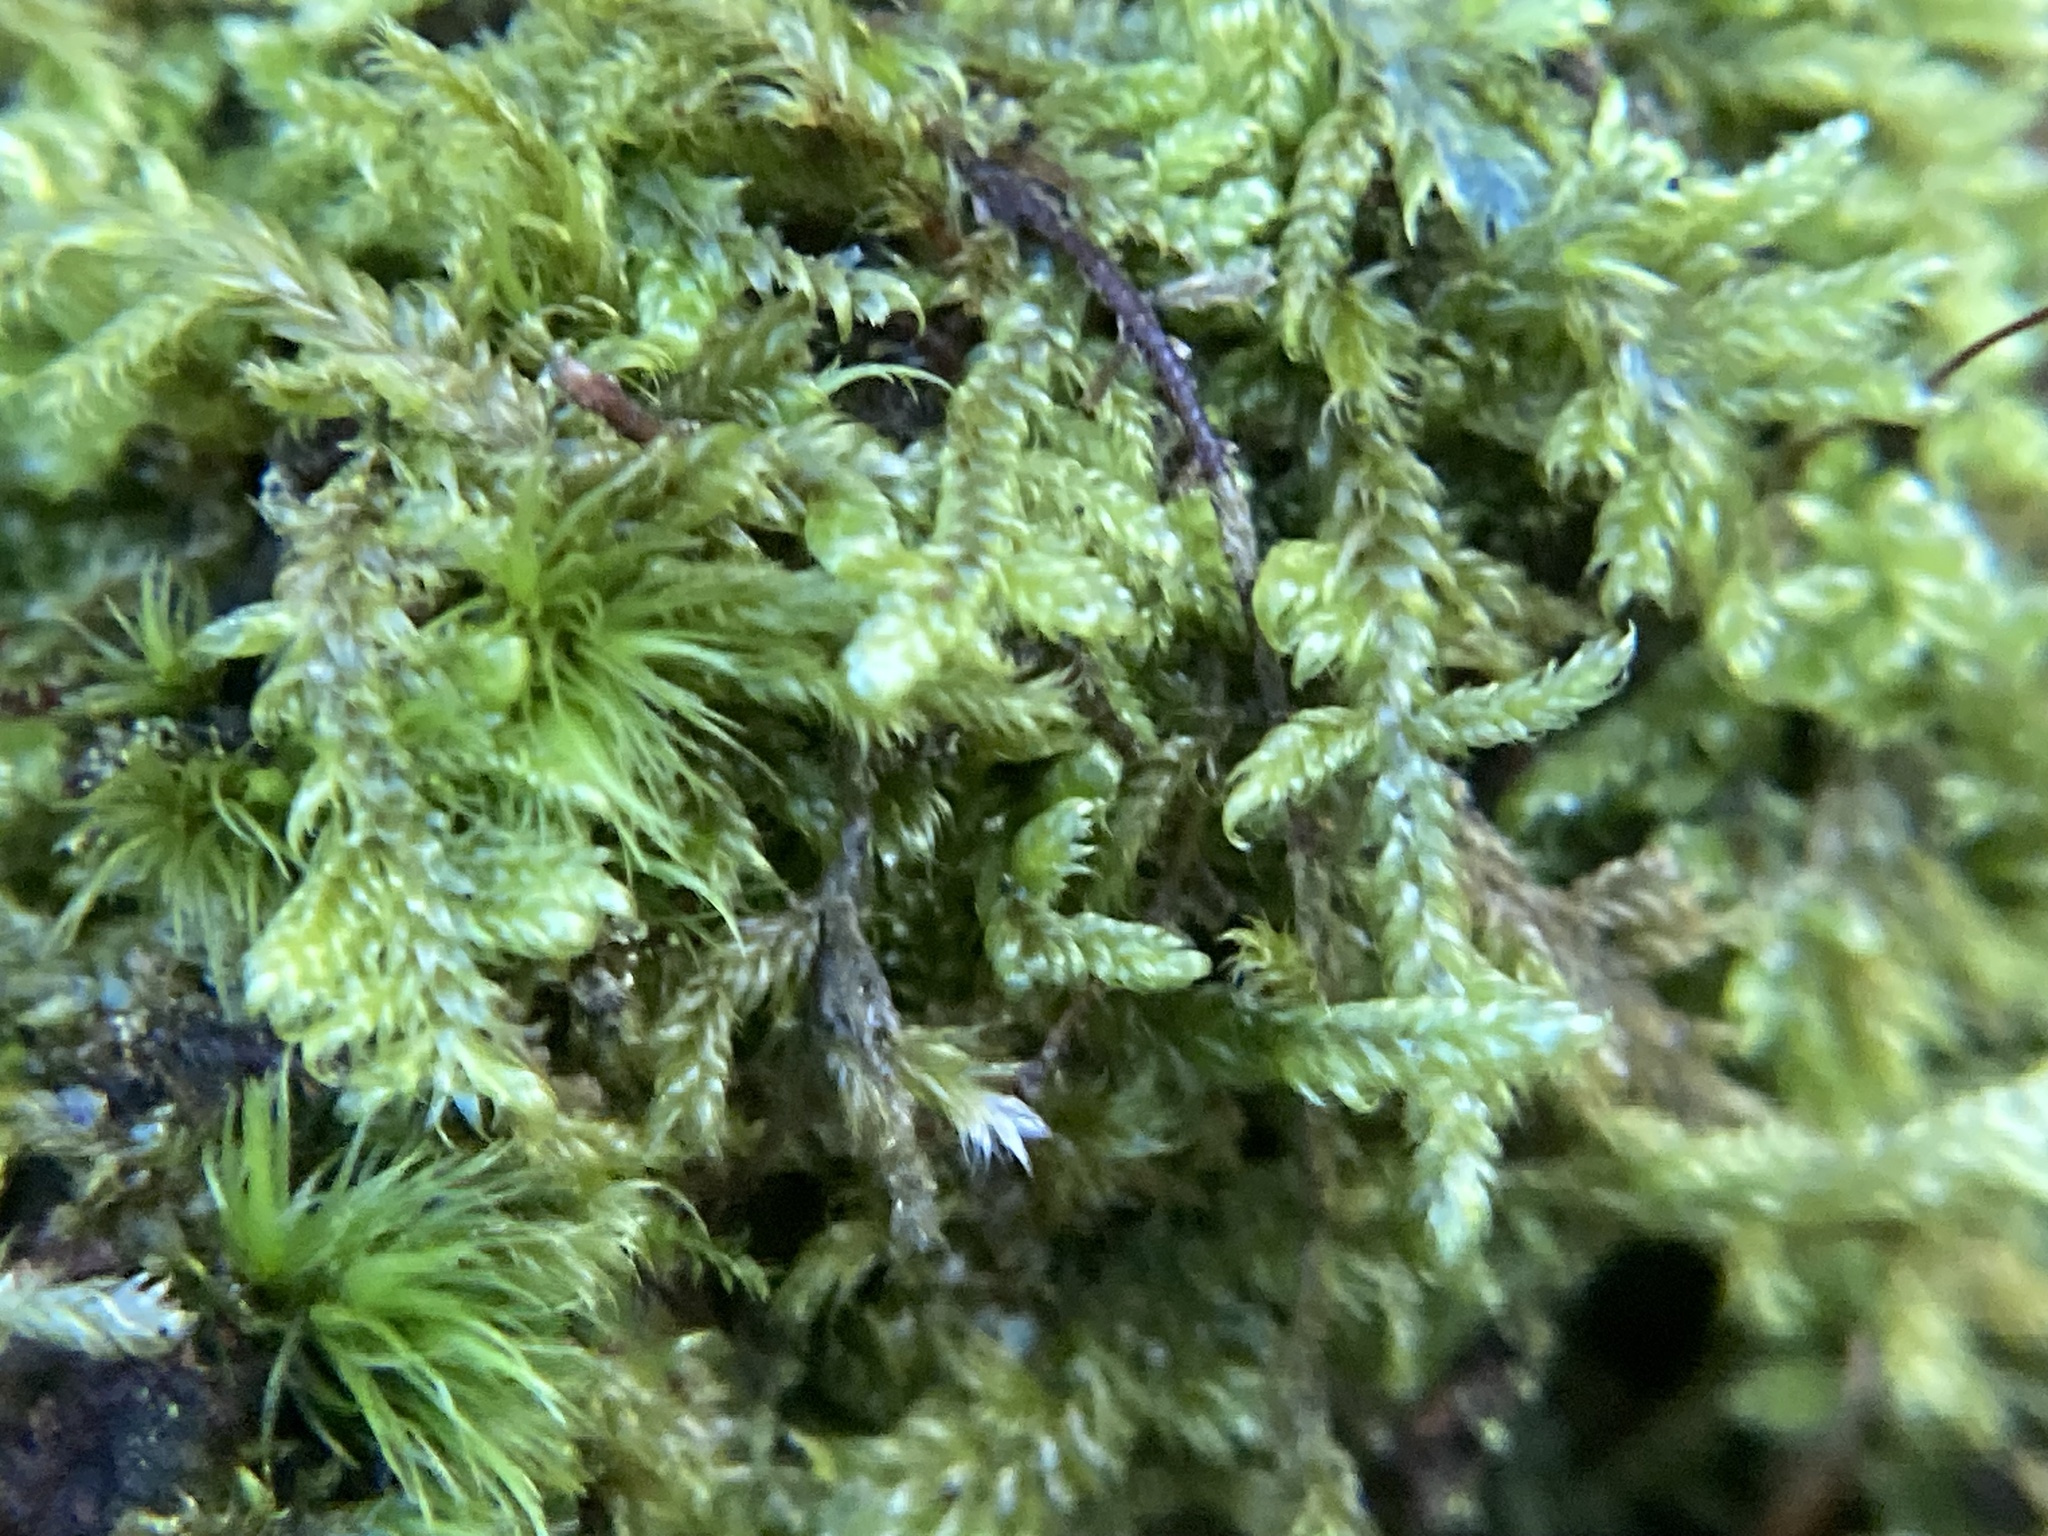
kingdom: Plantae
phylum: Bryophyta
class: Bryopsida
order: Hypnales
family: Callicladiaceae
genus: Callicladium
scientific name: Callicladium imponens
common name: Brocade moss
